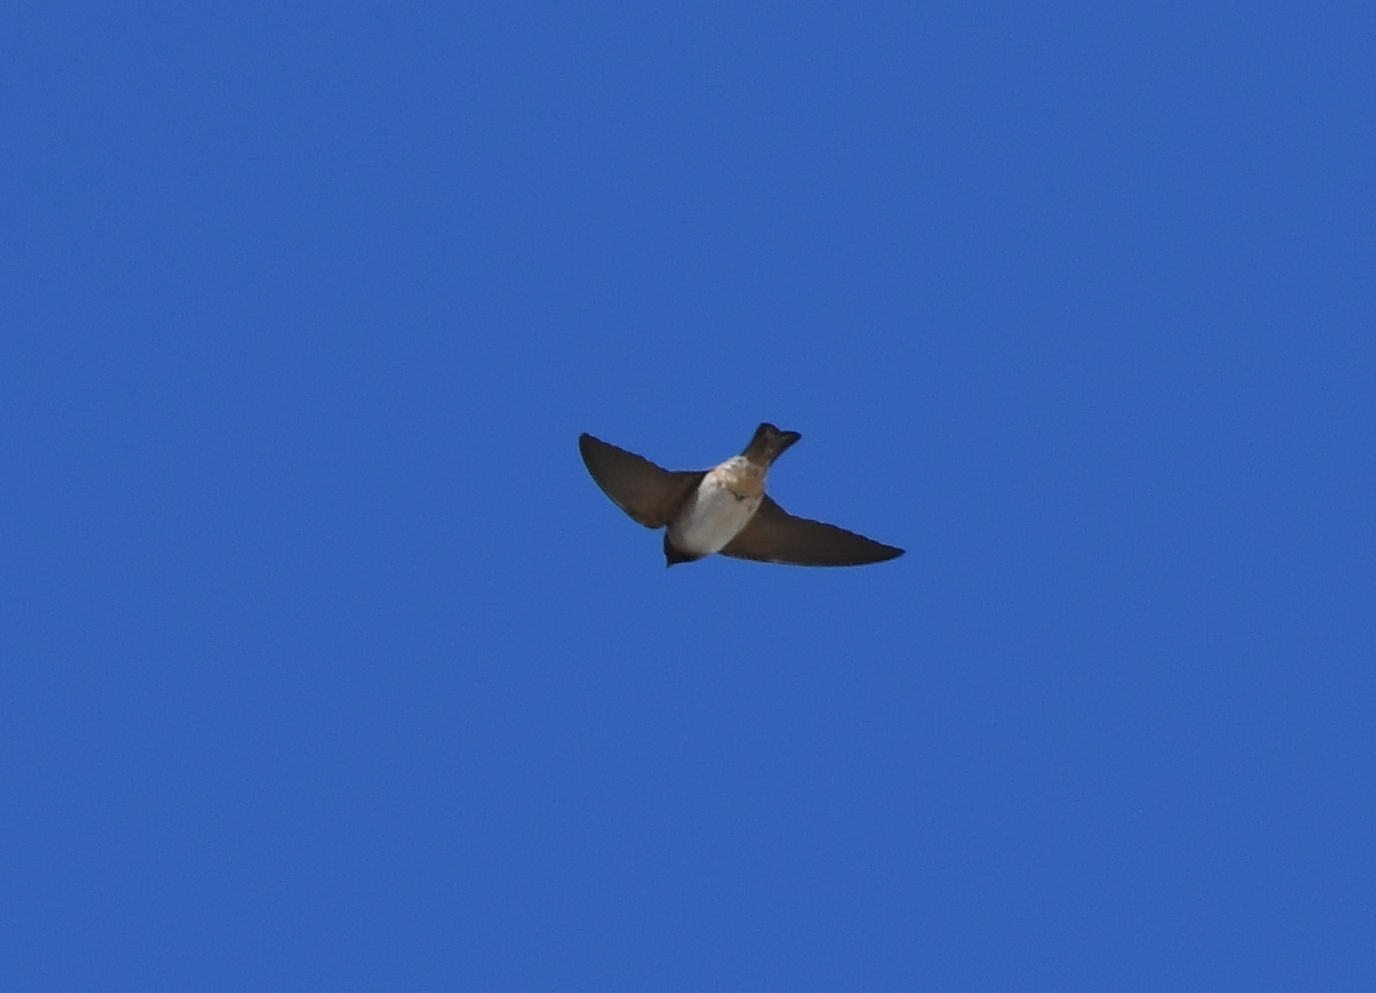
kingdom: Animalia
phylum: Chordata
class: Aves
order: Passeriformes
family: Hirundinidae
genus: Petrochelidon
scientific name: Petrochelidon pyrrhonota
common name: American cliff swallow
